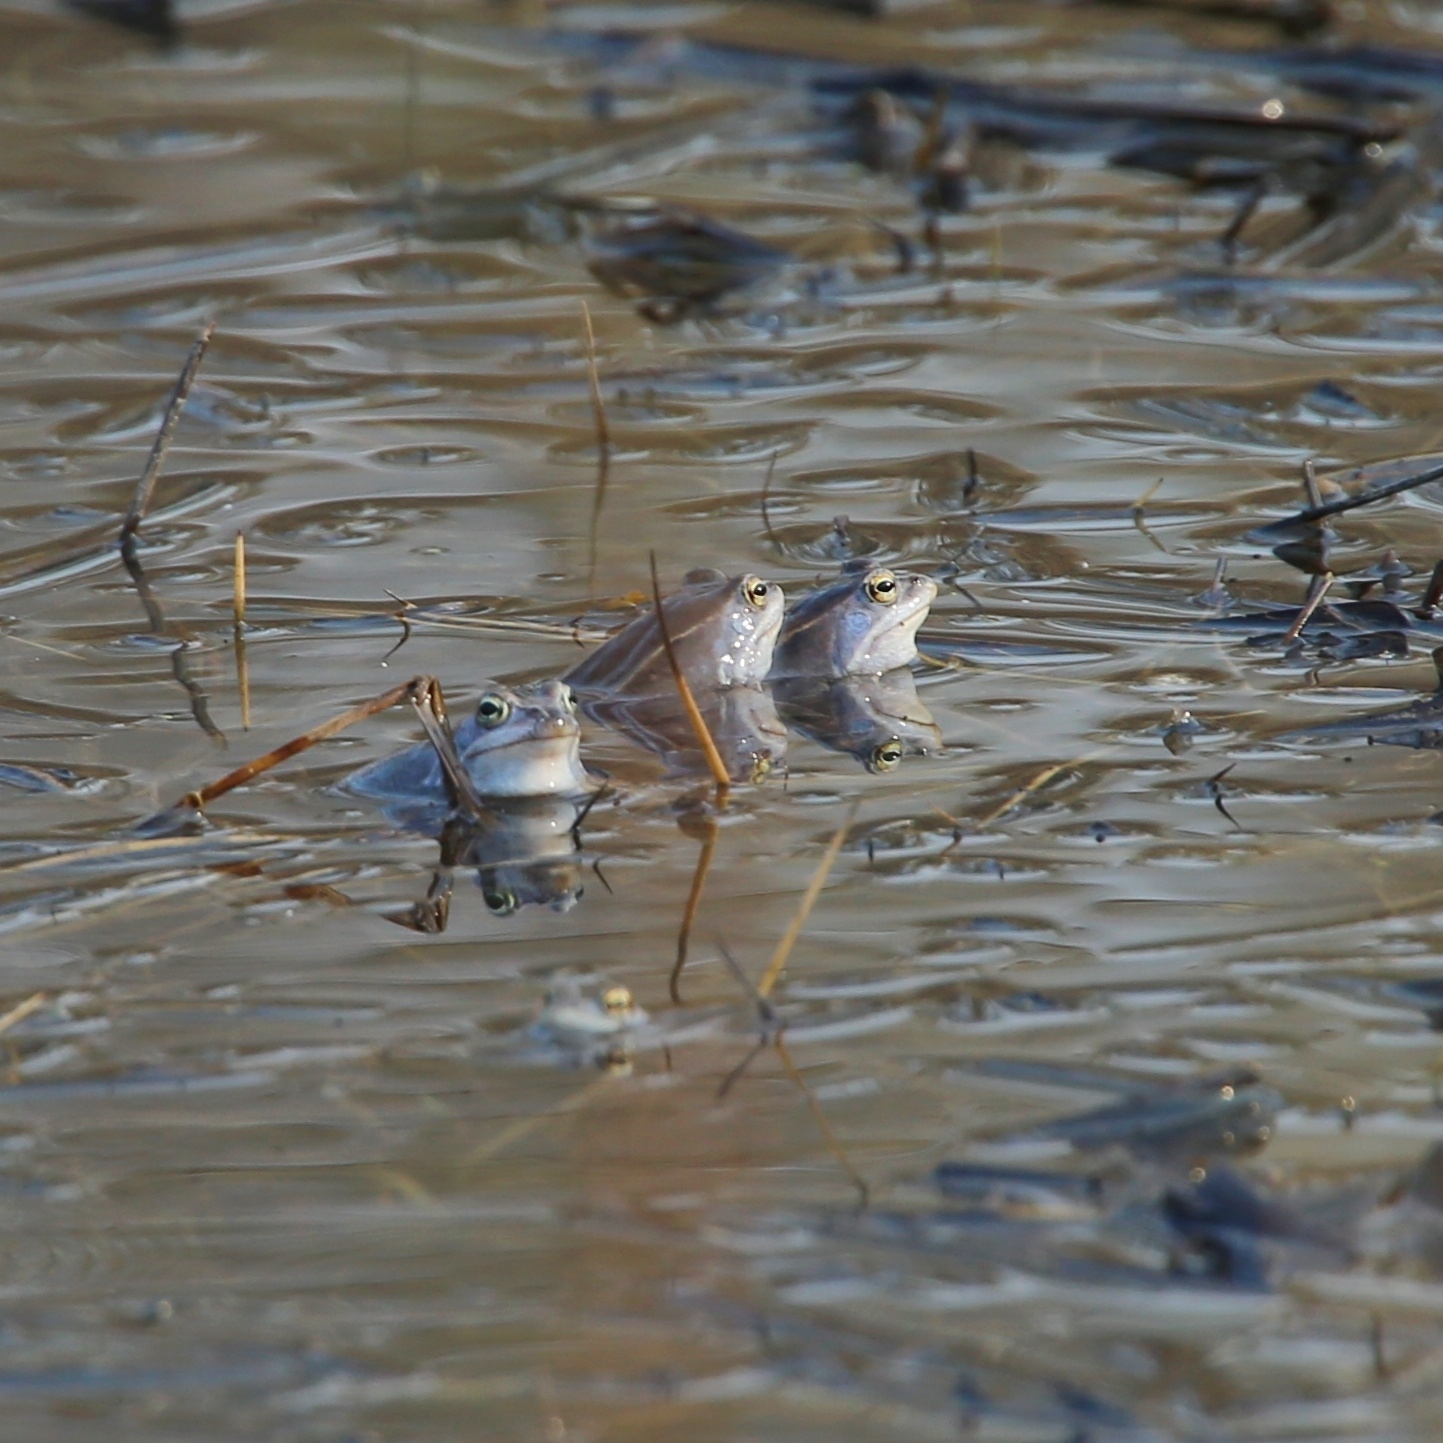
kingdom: Animalia
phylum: Chordata
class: Amphibia
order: Anura
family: Ranidae
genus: Rana
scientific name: Rana arvalis
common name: Moor frog
